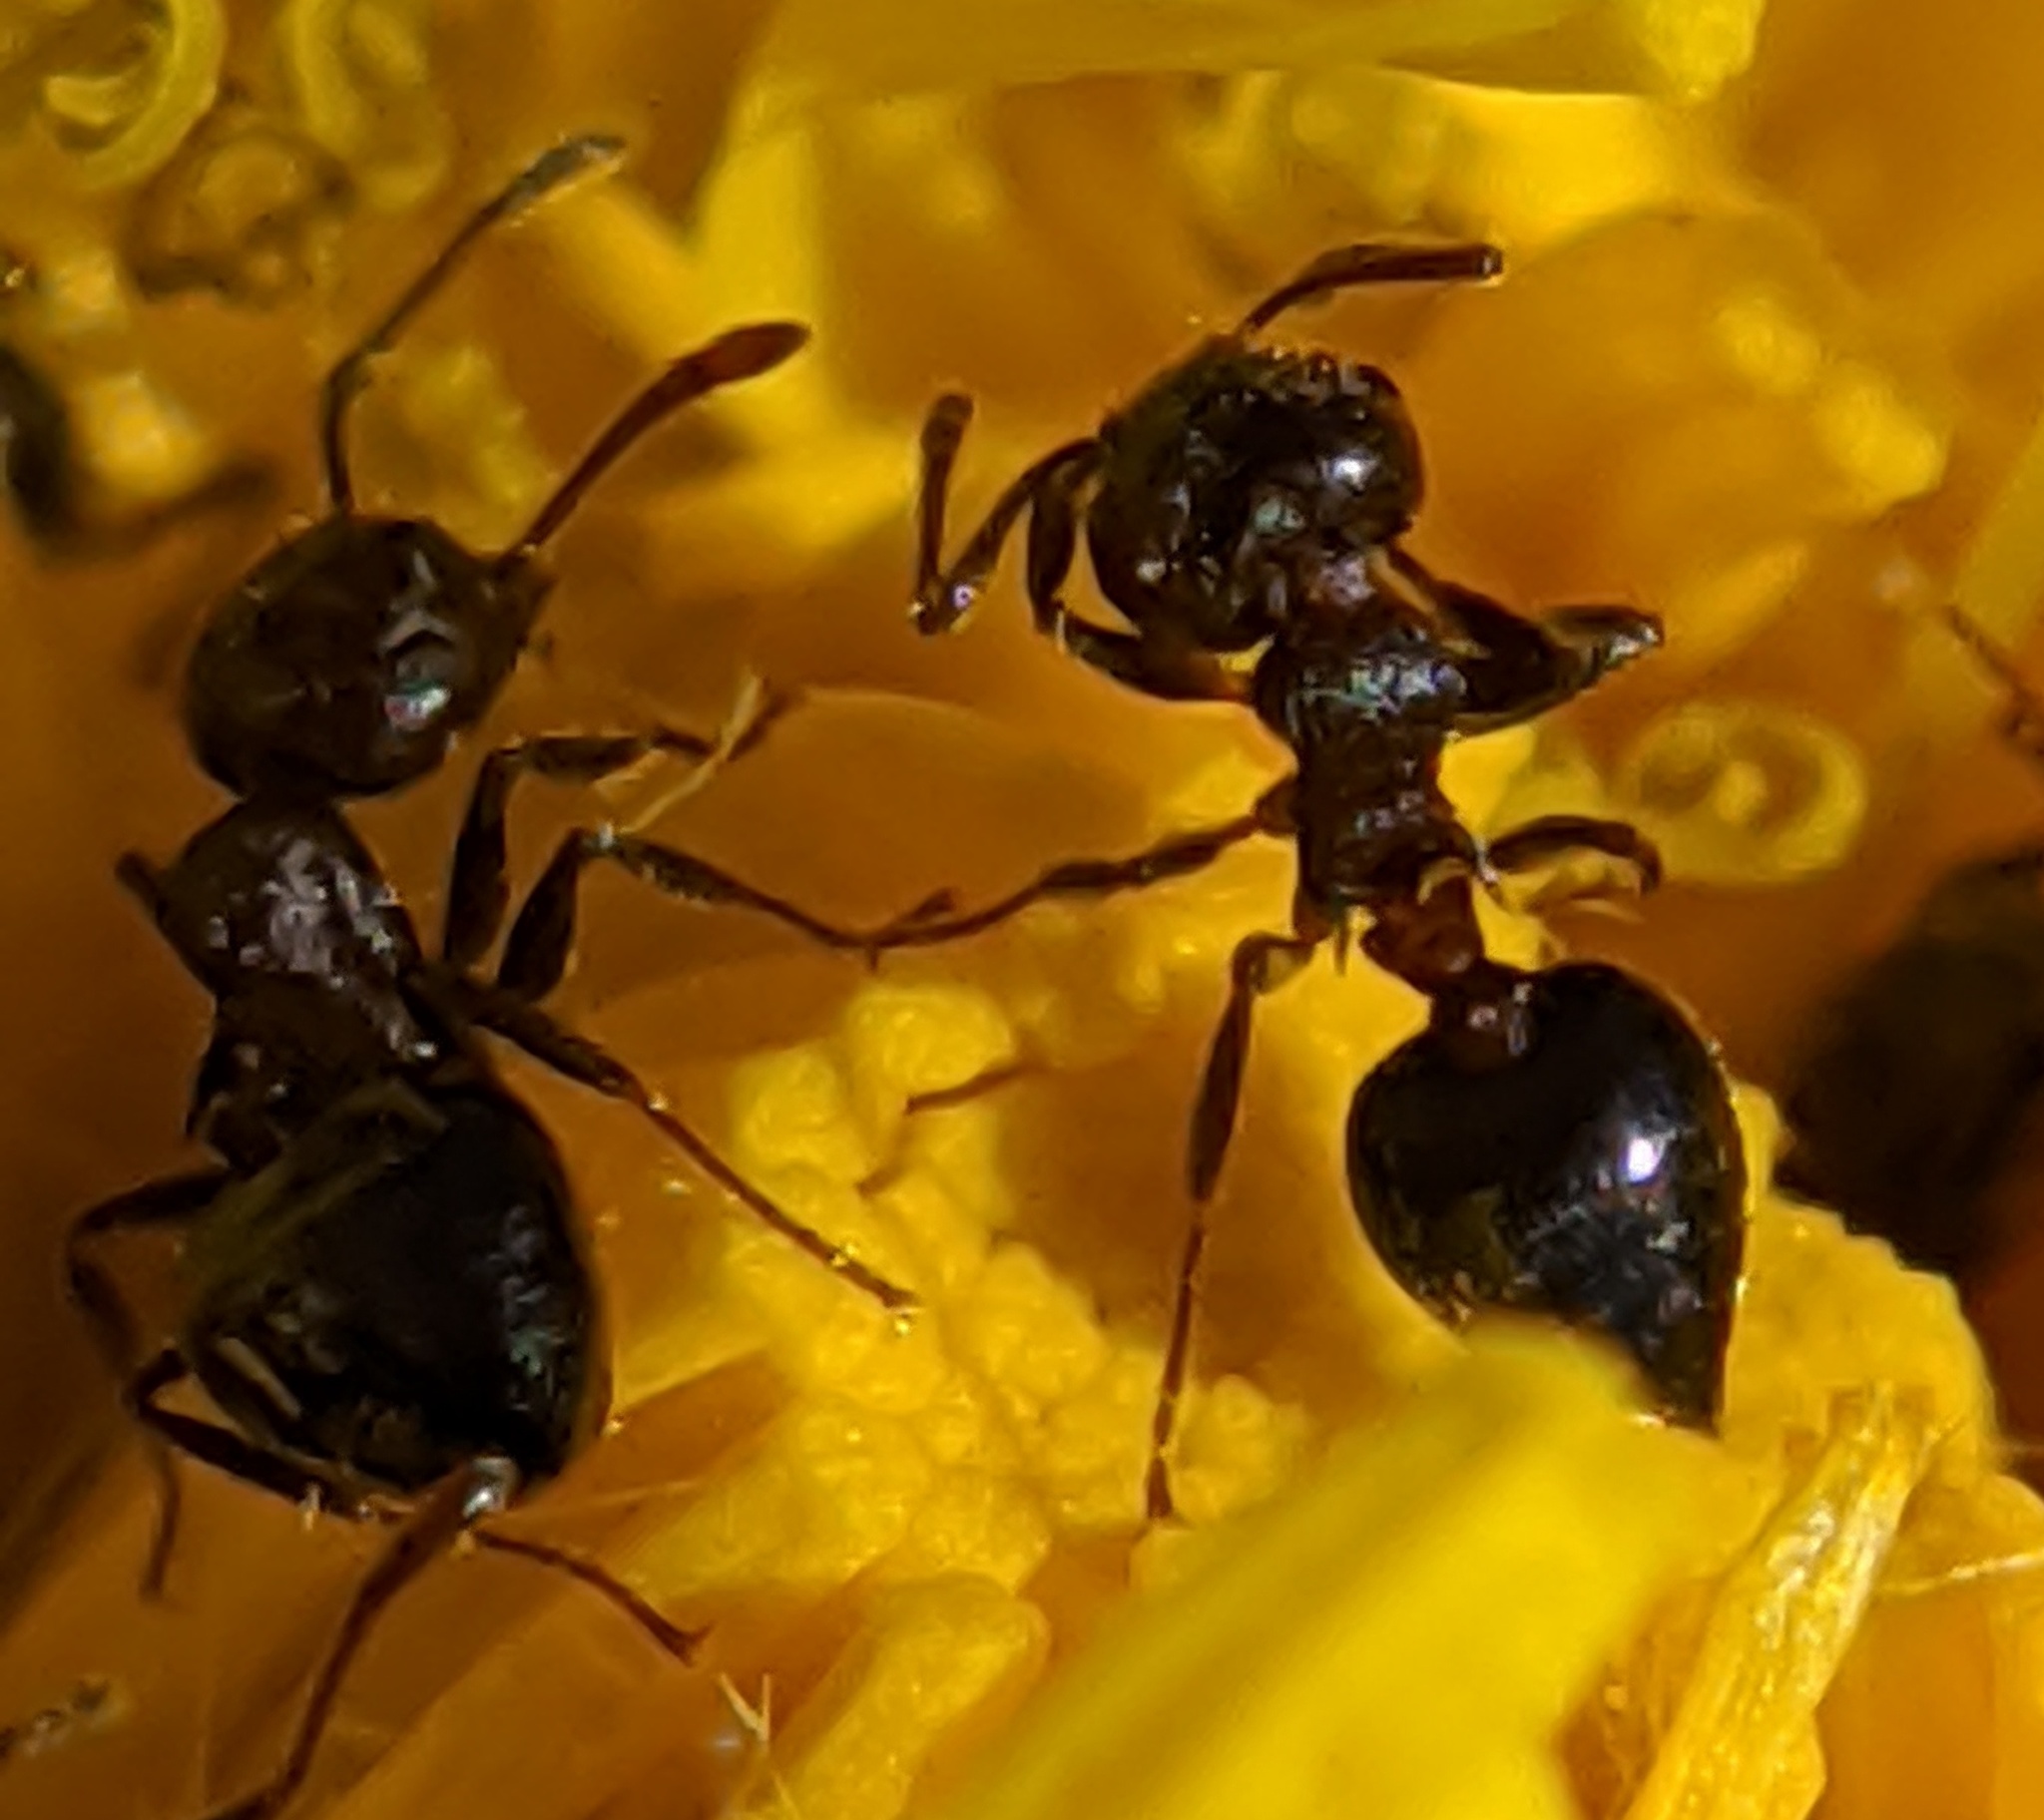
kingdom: Animalia
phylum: Arthropoda
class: Insecta
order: Hymenoptera
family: Formicidae
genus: Crematogaster
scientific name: Crematogaster
